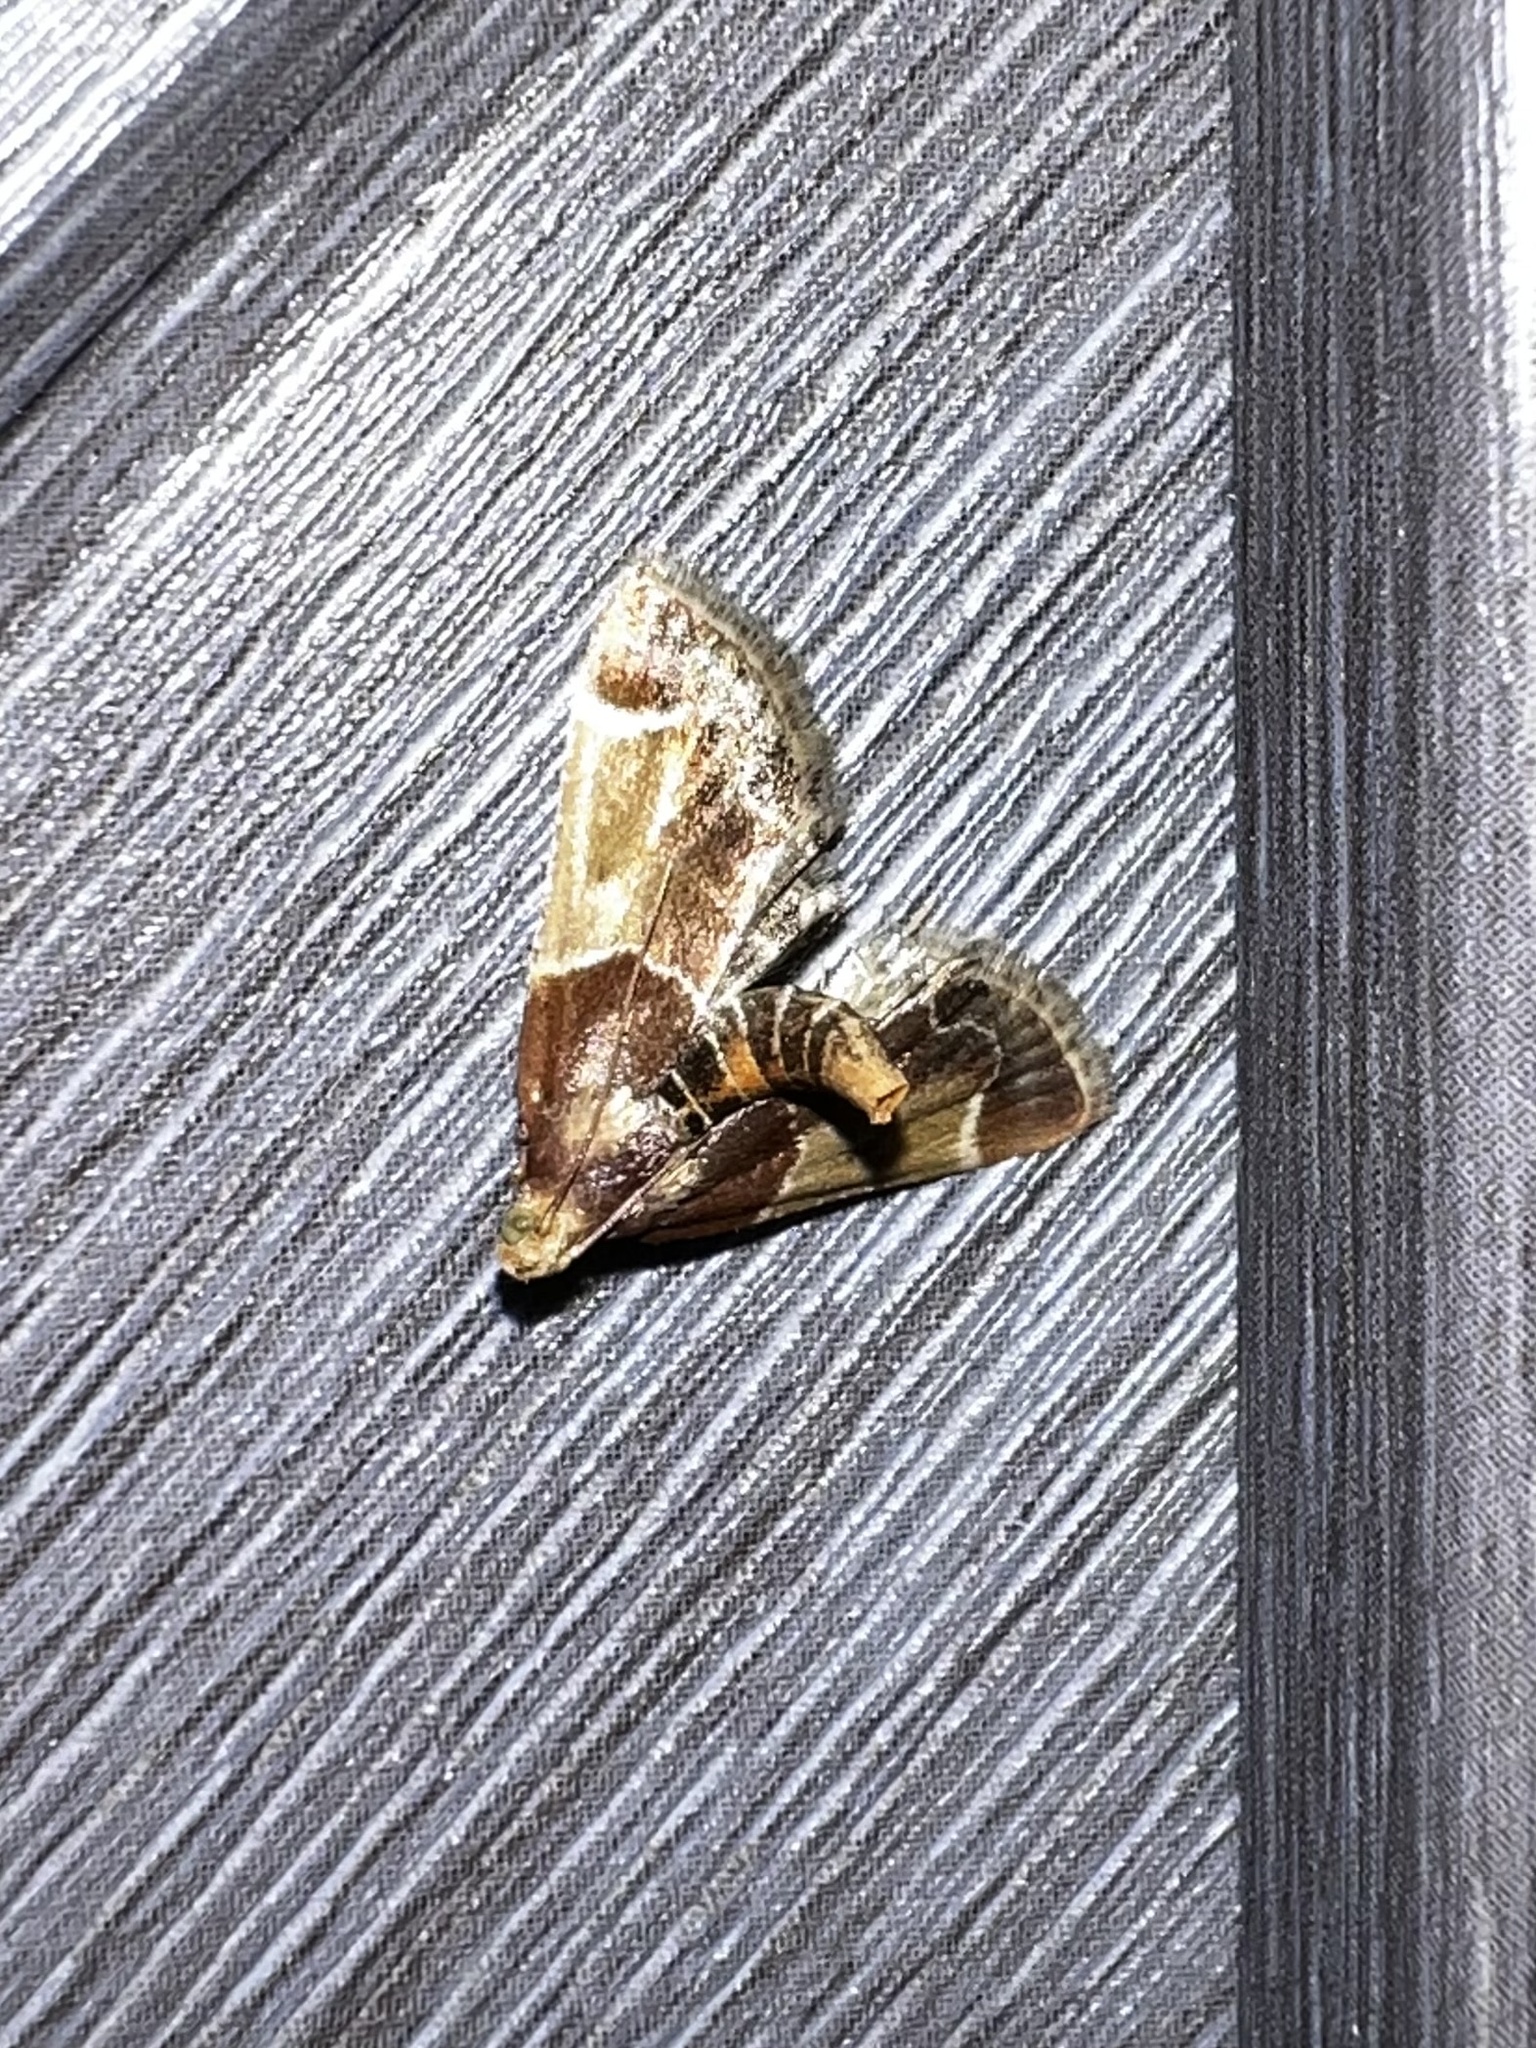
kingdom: Animalia
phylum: Arthropoda
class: Insecta
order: Lepidoptera
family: Pyralidae
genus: Pyralis
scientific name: Pyralis farinalis
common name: Meal moth
